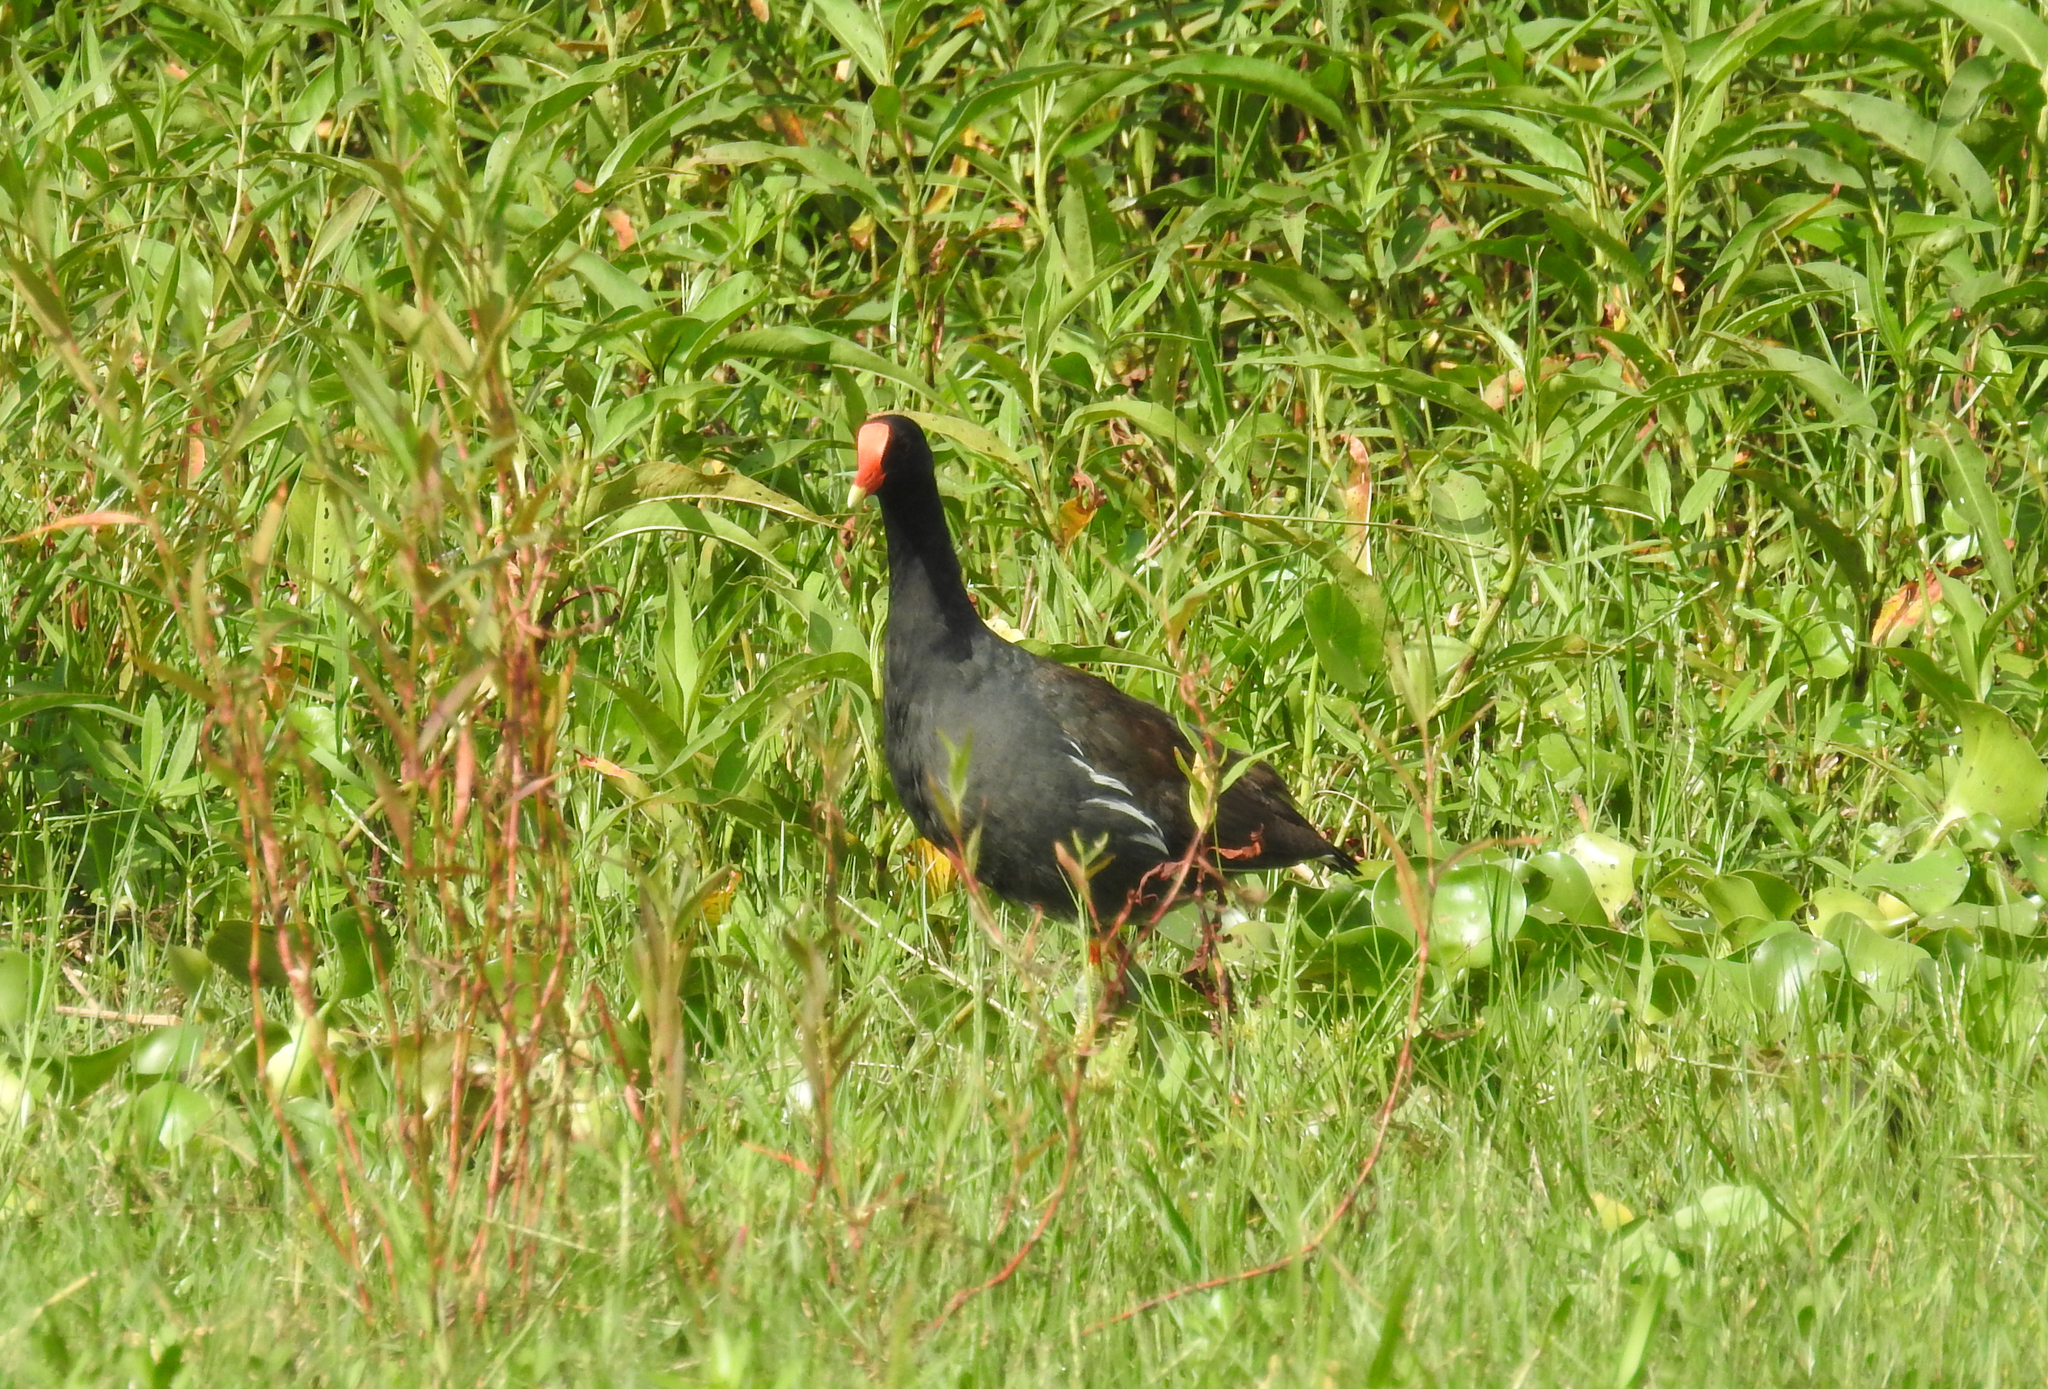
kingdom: Animalia
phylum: Chordata
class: Aves
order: Gruiformes
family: Rallidae
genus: Gallinula
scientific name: Gallinula chloropus
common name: Common moorhen
